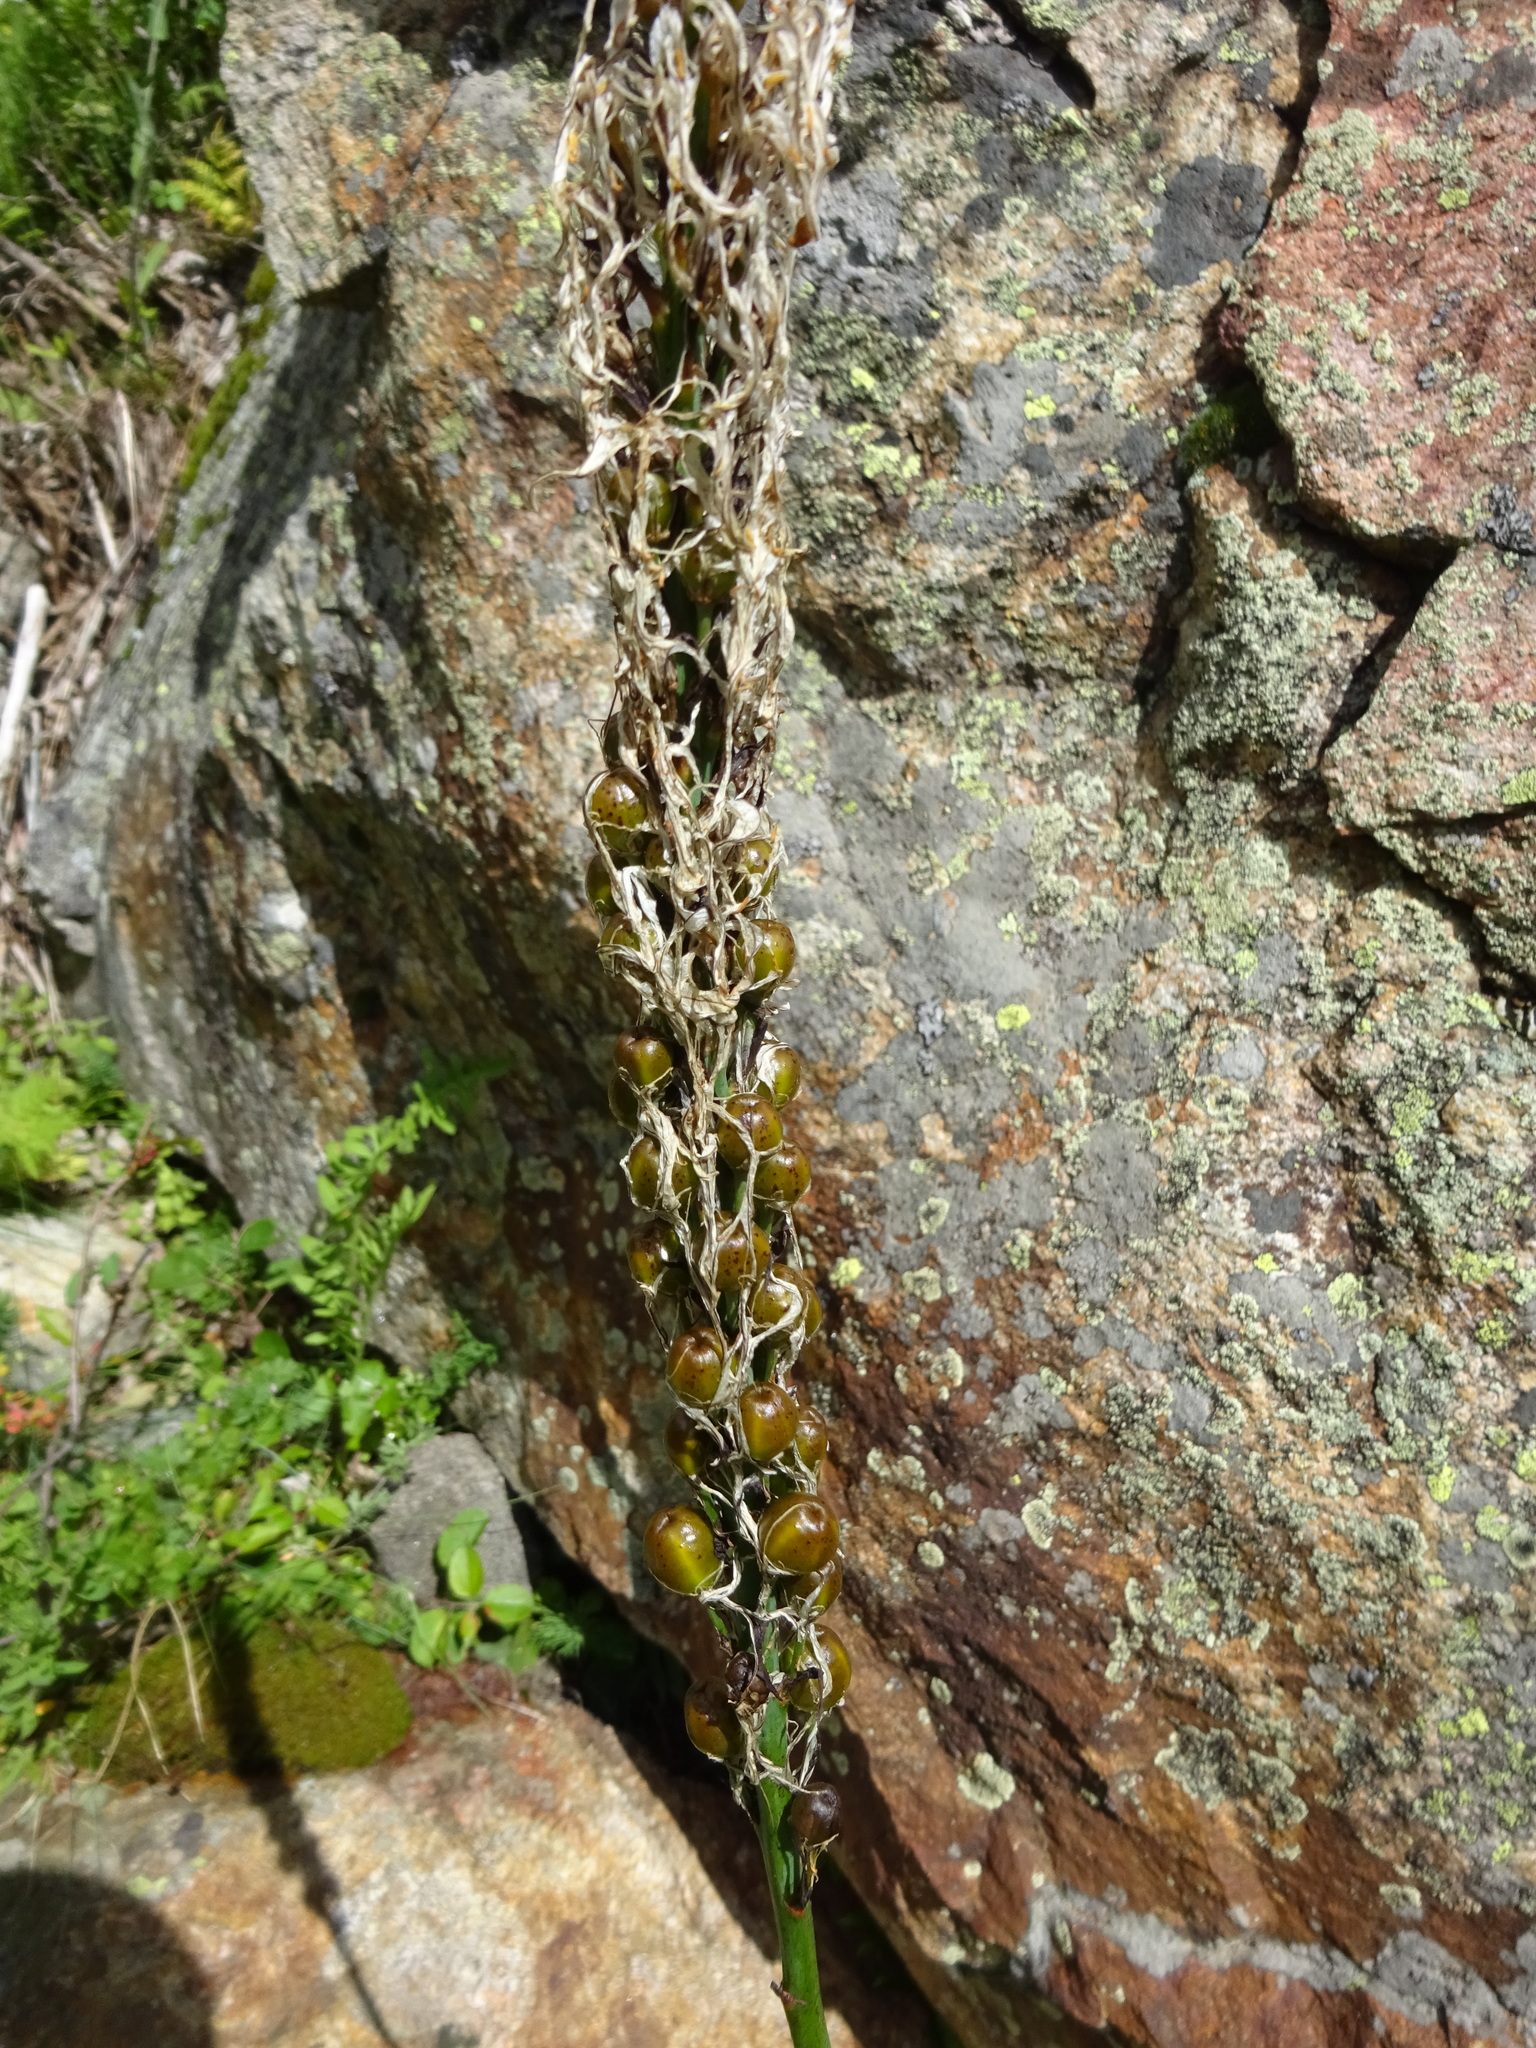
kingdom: Plantae
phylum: Tracheophyta
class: Liliopsida
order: Asparagales
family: Asphodelaceae
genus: Asphodelus
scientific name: Asphodelus albus
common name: White asphodel
